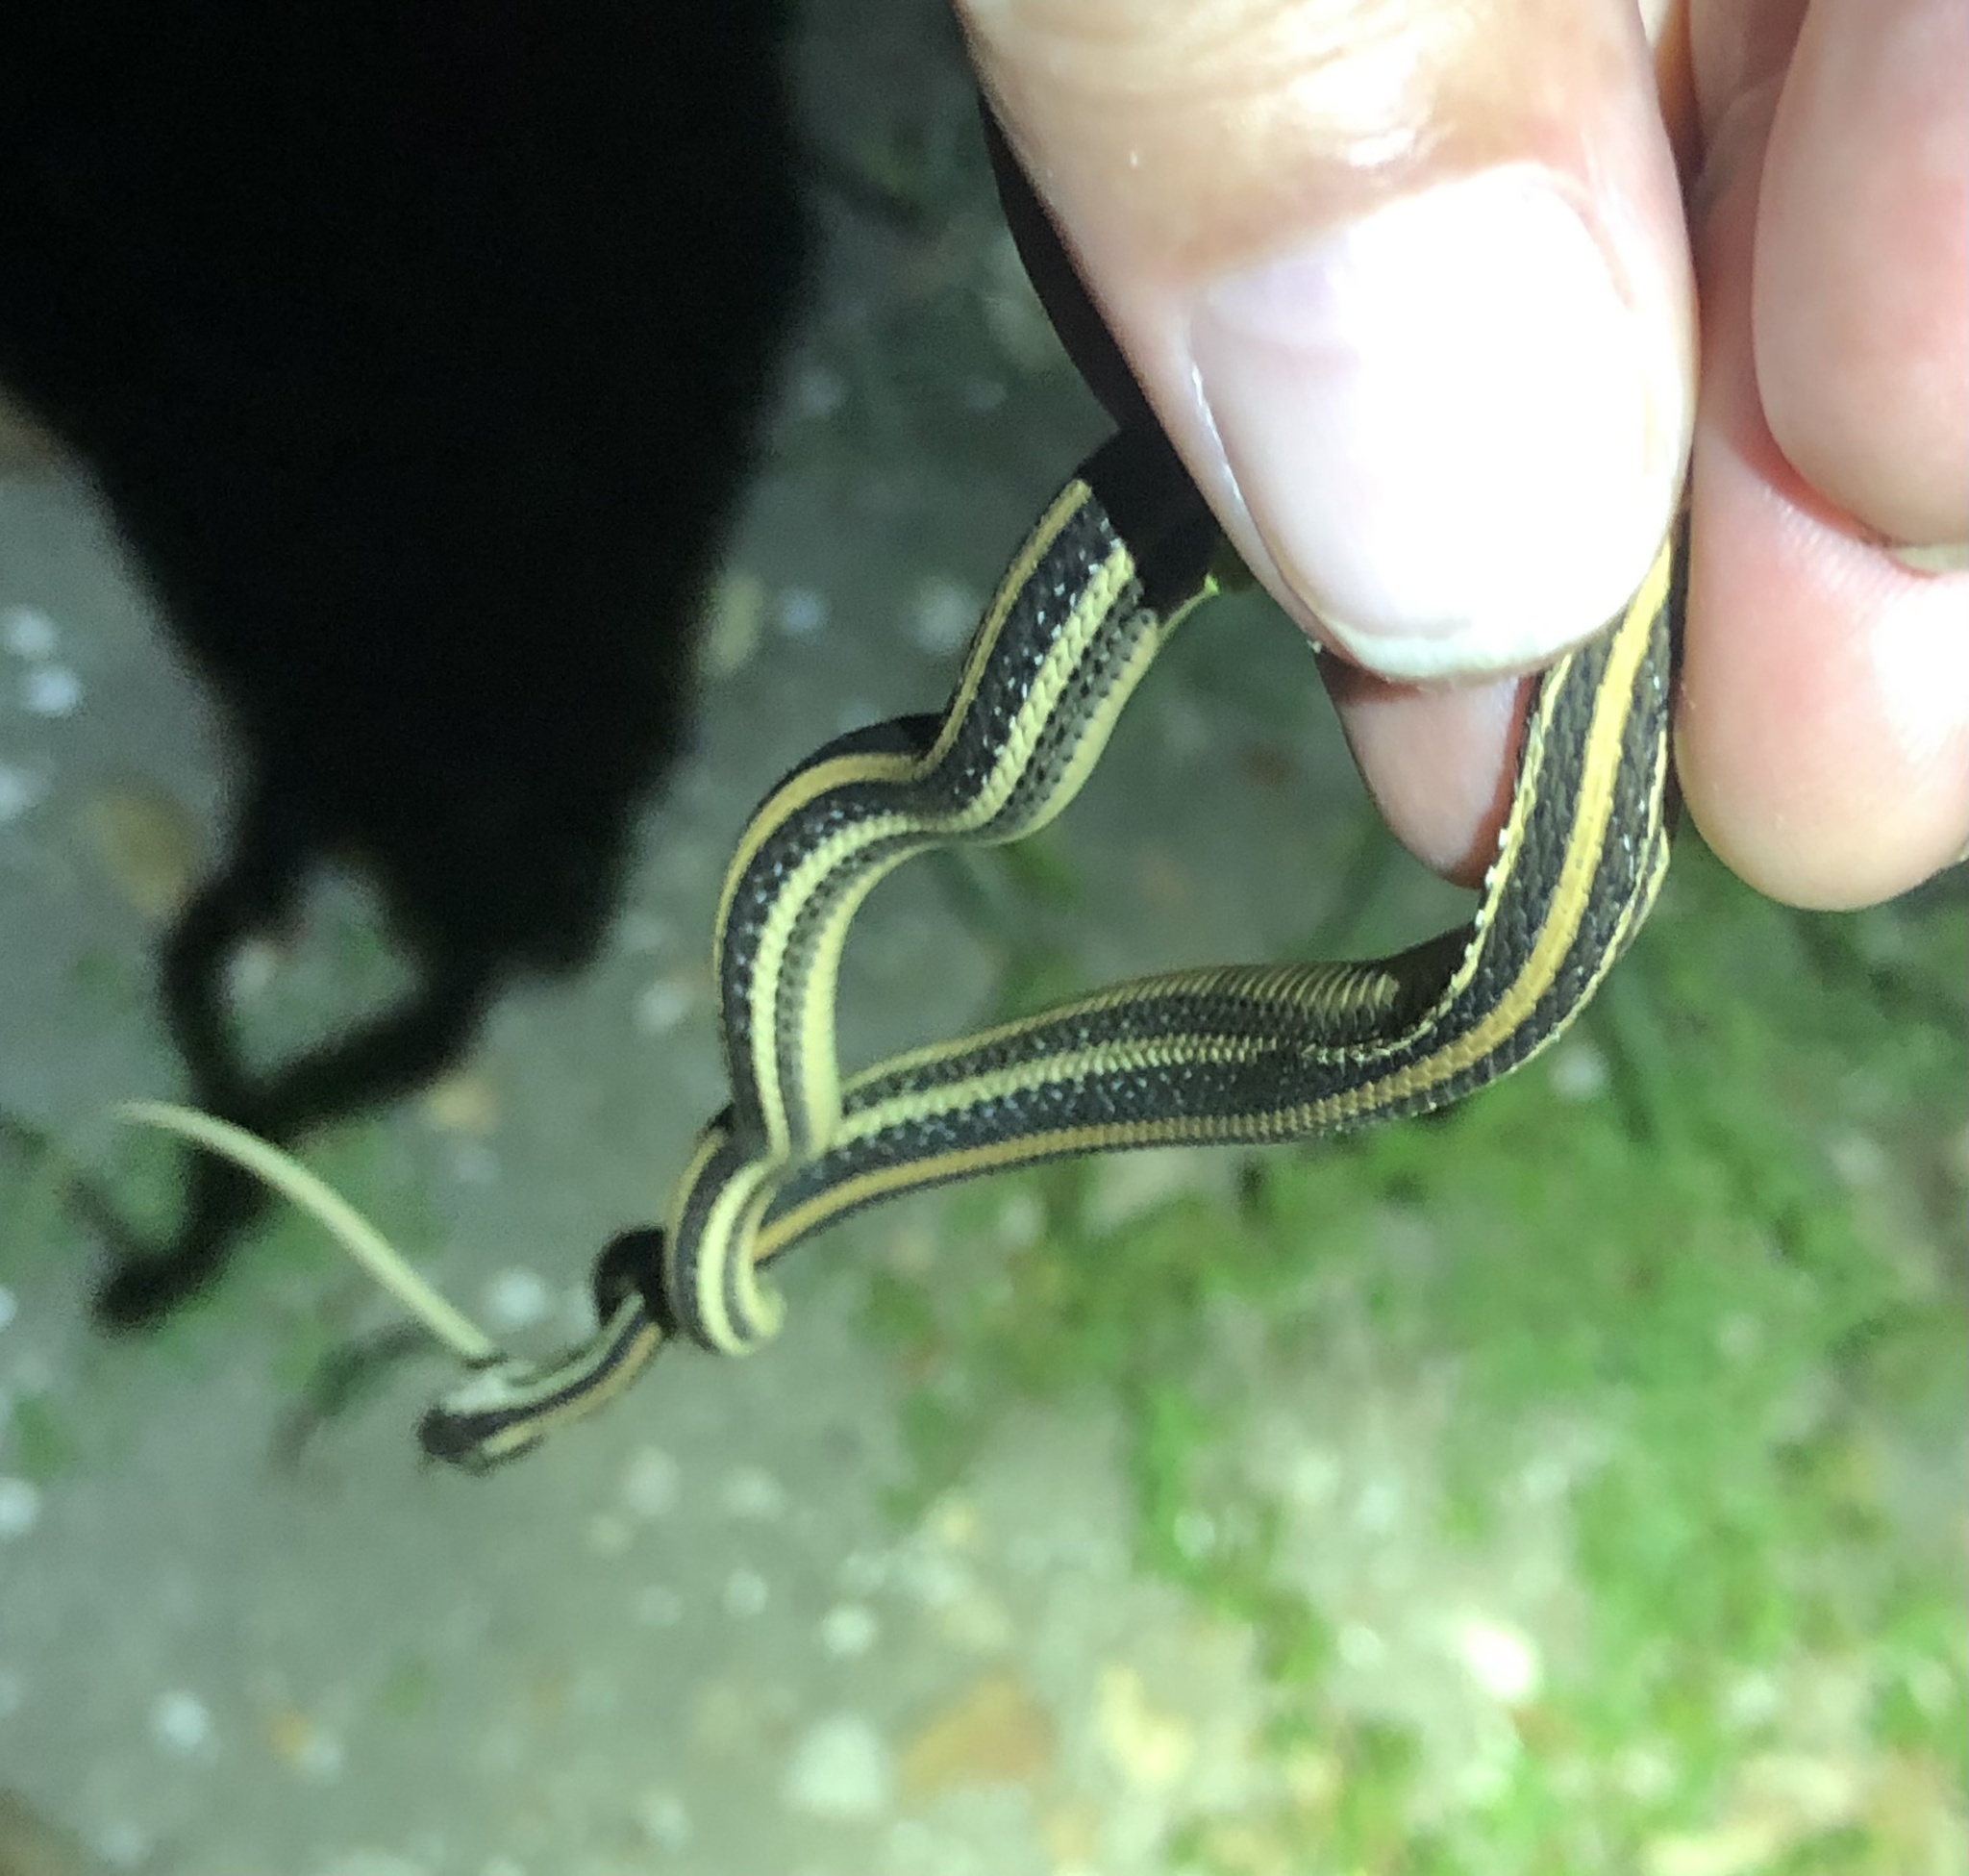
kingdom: Animalia
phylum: Chordata
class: Squamata
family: Colubridae
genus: Thamnophis
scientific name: Thamnophis proximus
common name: Western ribbon snake
